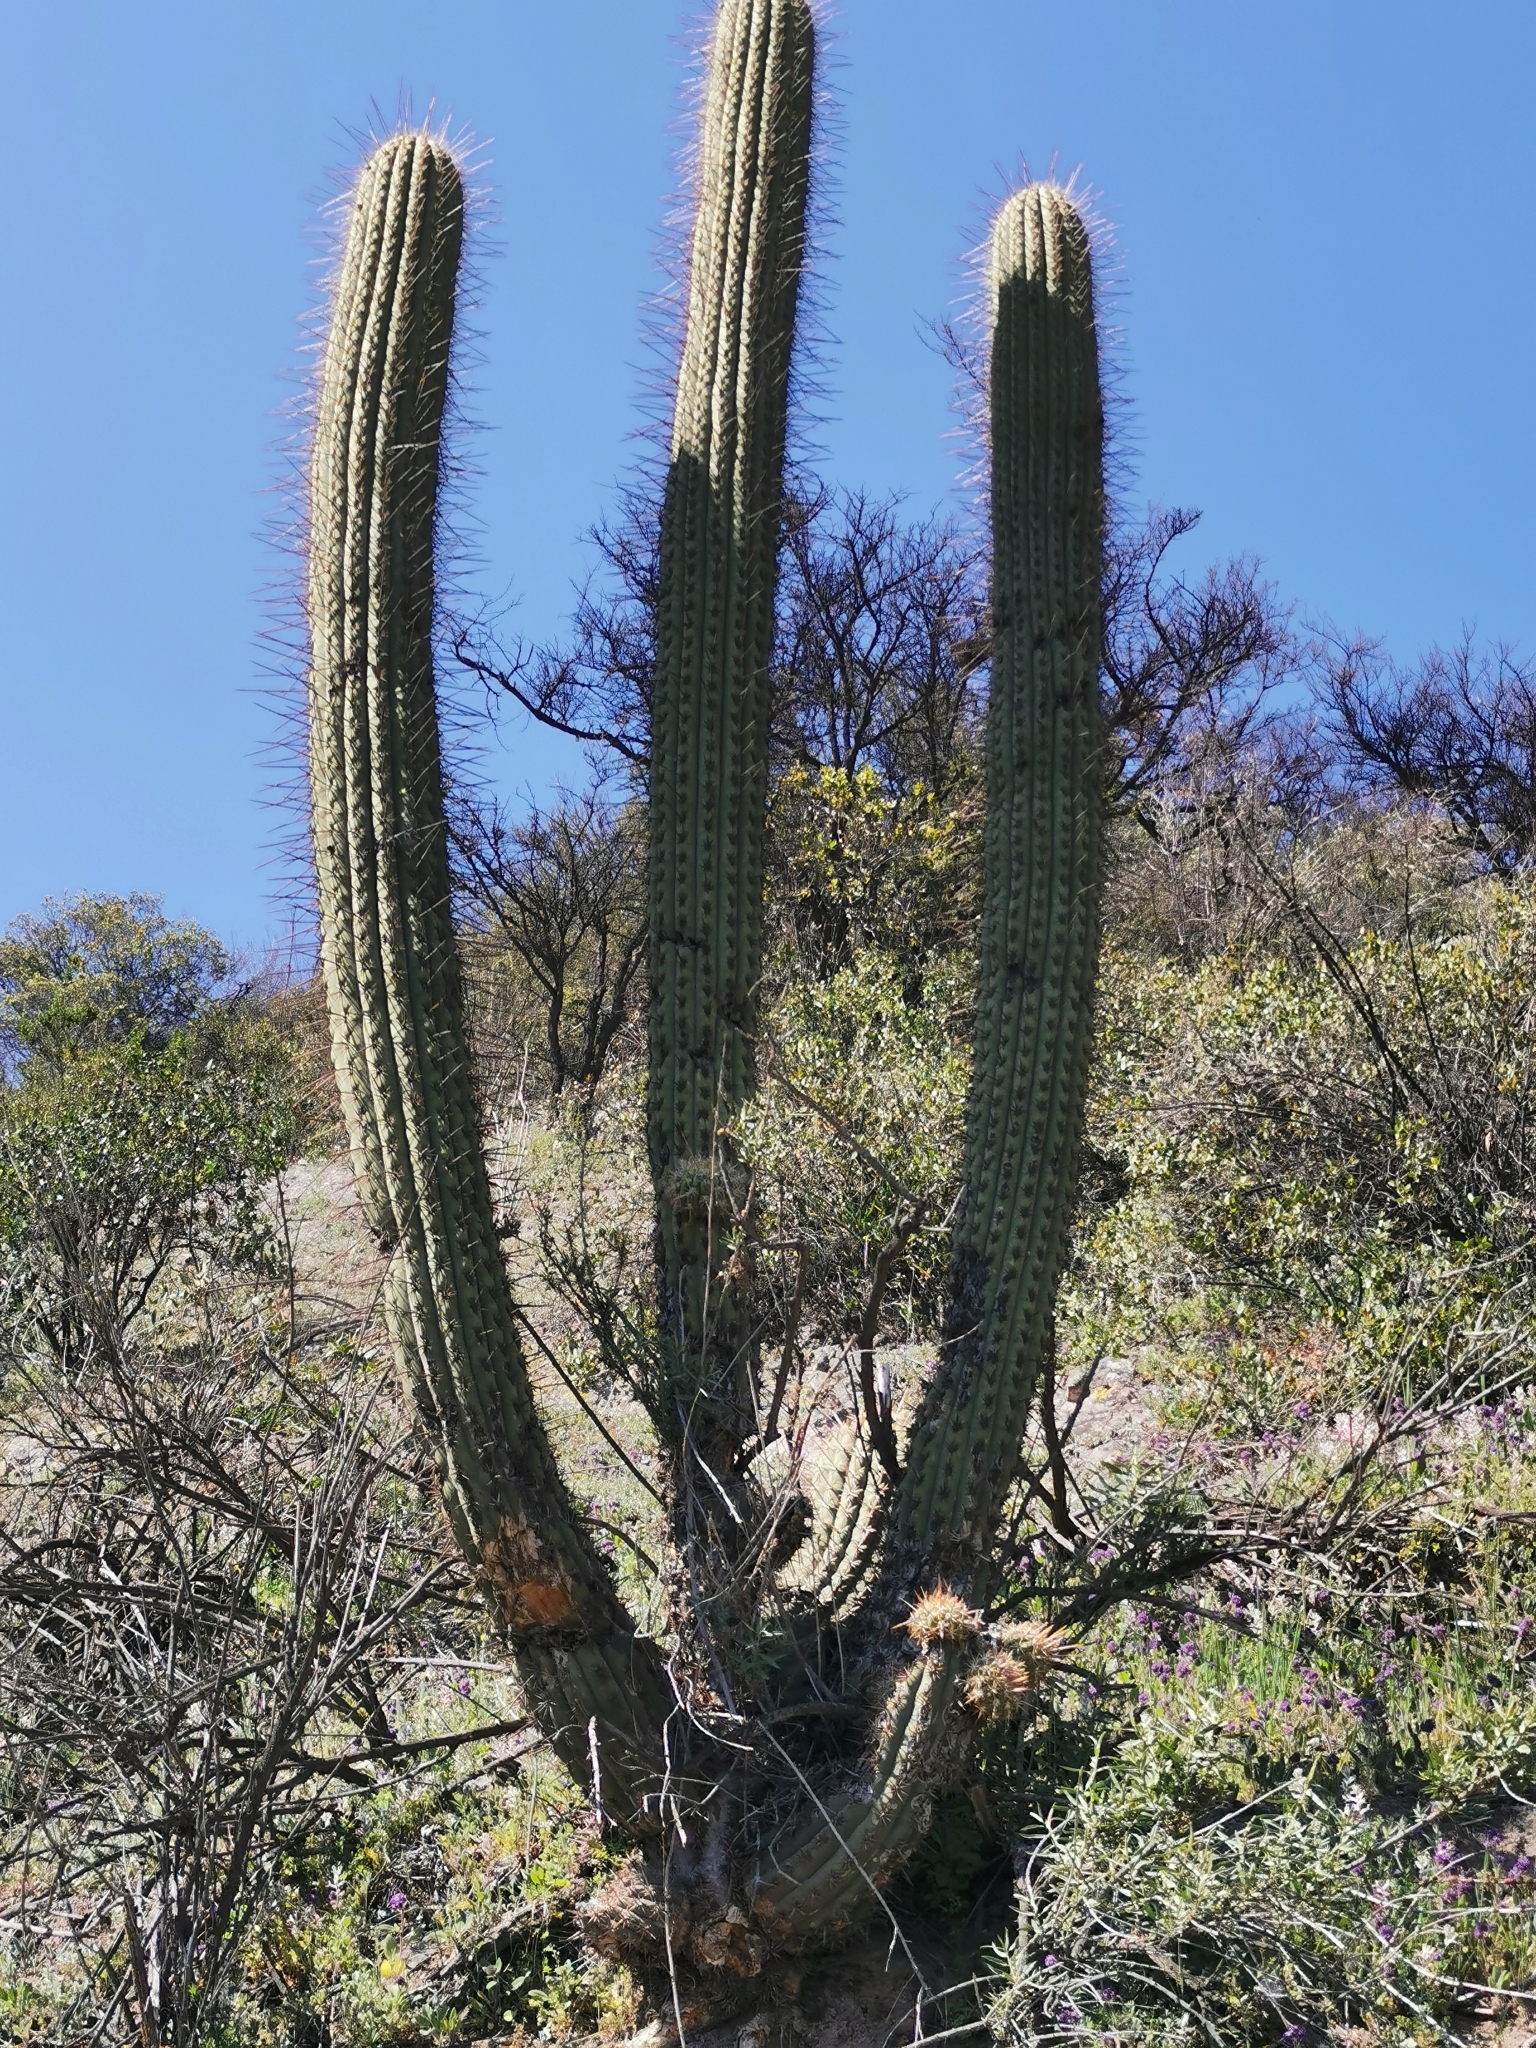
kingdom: Plantae
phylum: Tracheophyta
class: Magnoliopsida
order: Caryophyllales
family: Cactaceae
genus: Leucostele
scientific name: Leucostele chiloensis
